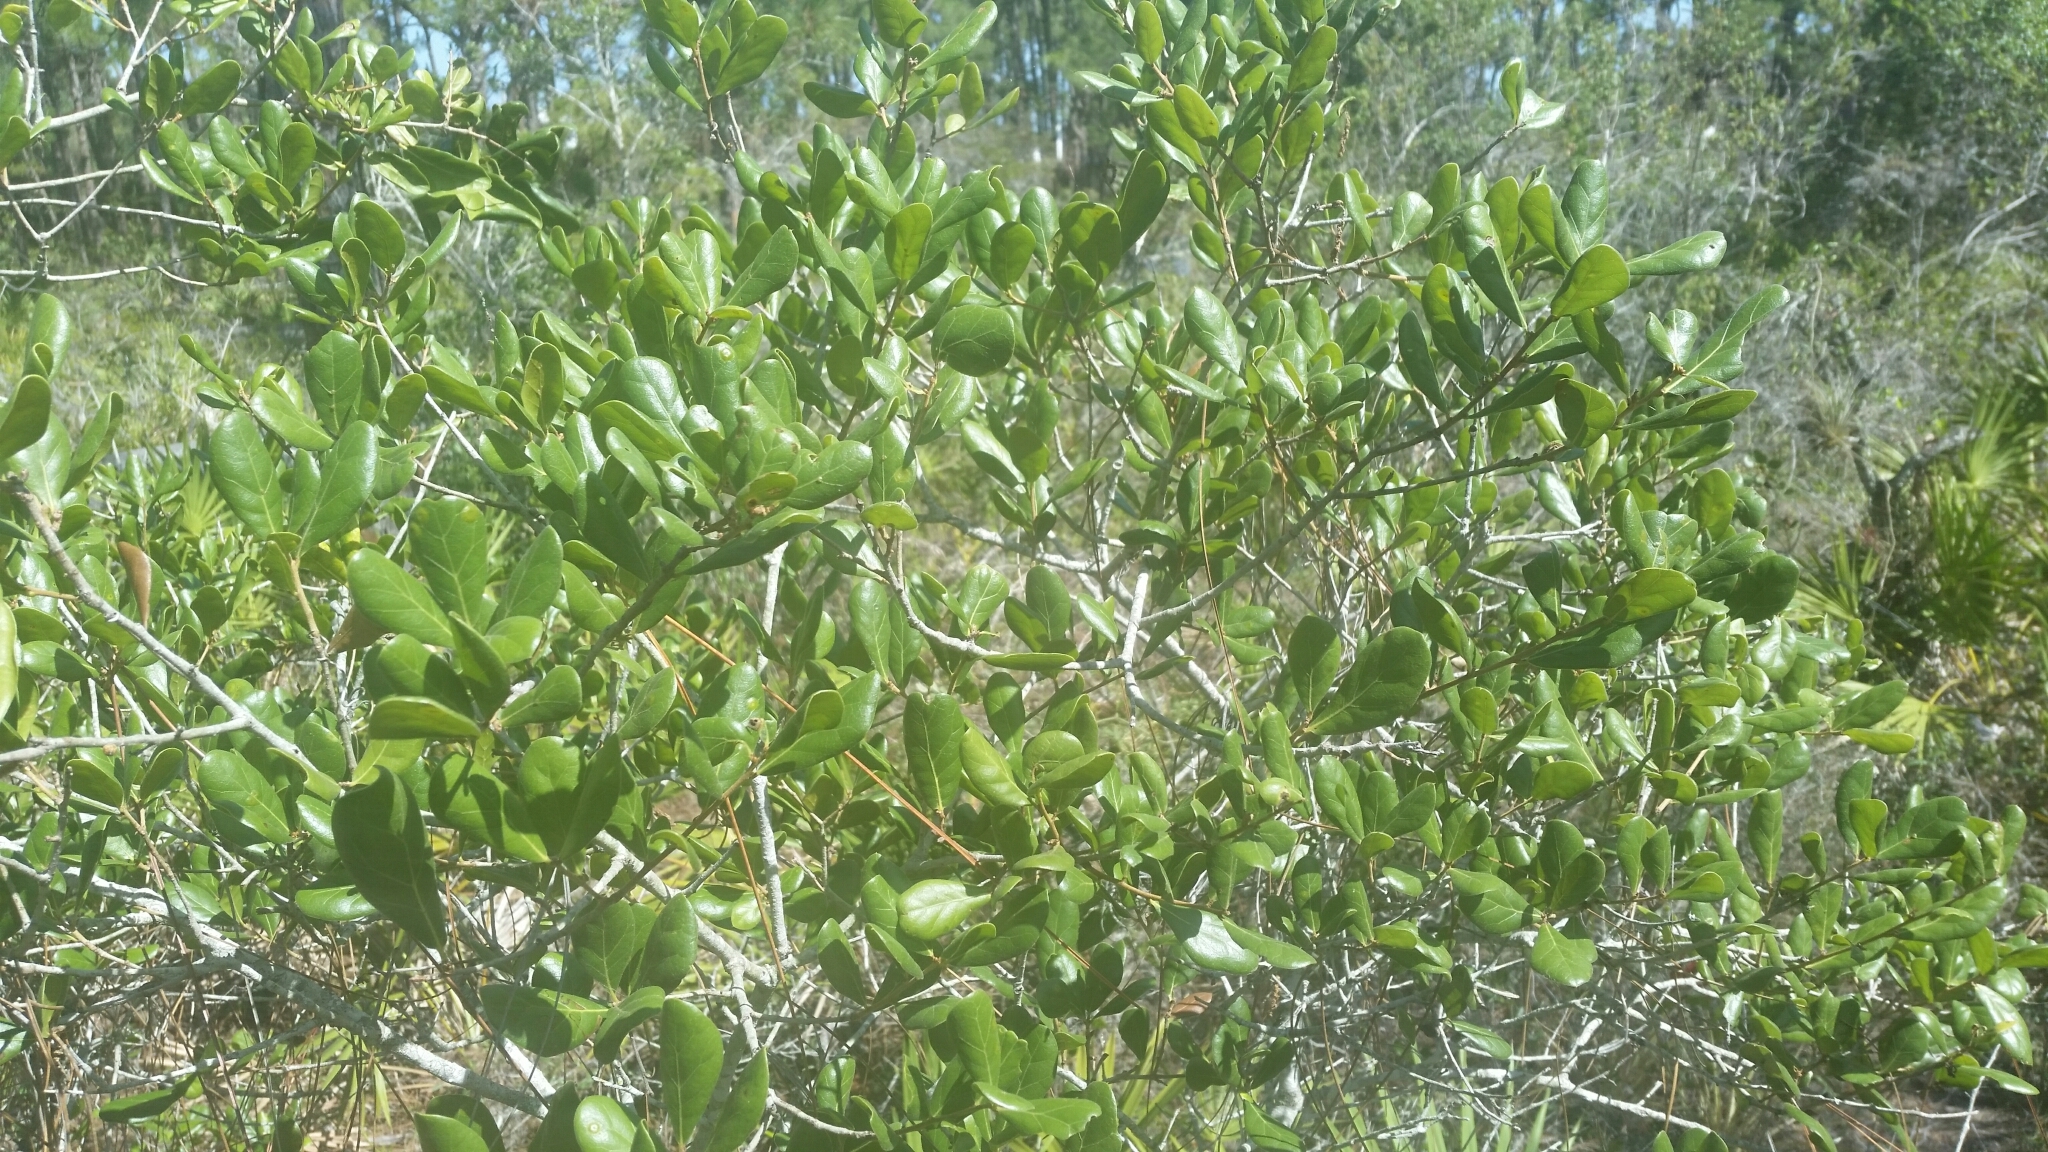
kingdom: Plantae
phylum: Tracheophyta
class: Magnoliopsida
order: Fagales
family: Fagaceae
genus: Quercus
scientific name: Quercus myrtifolia
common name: Myrtle oak
